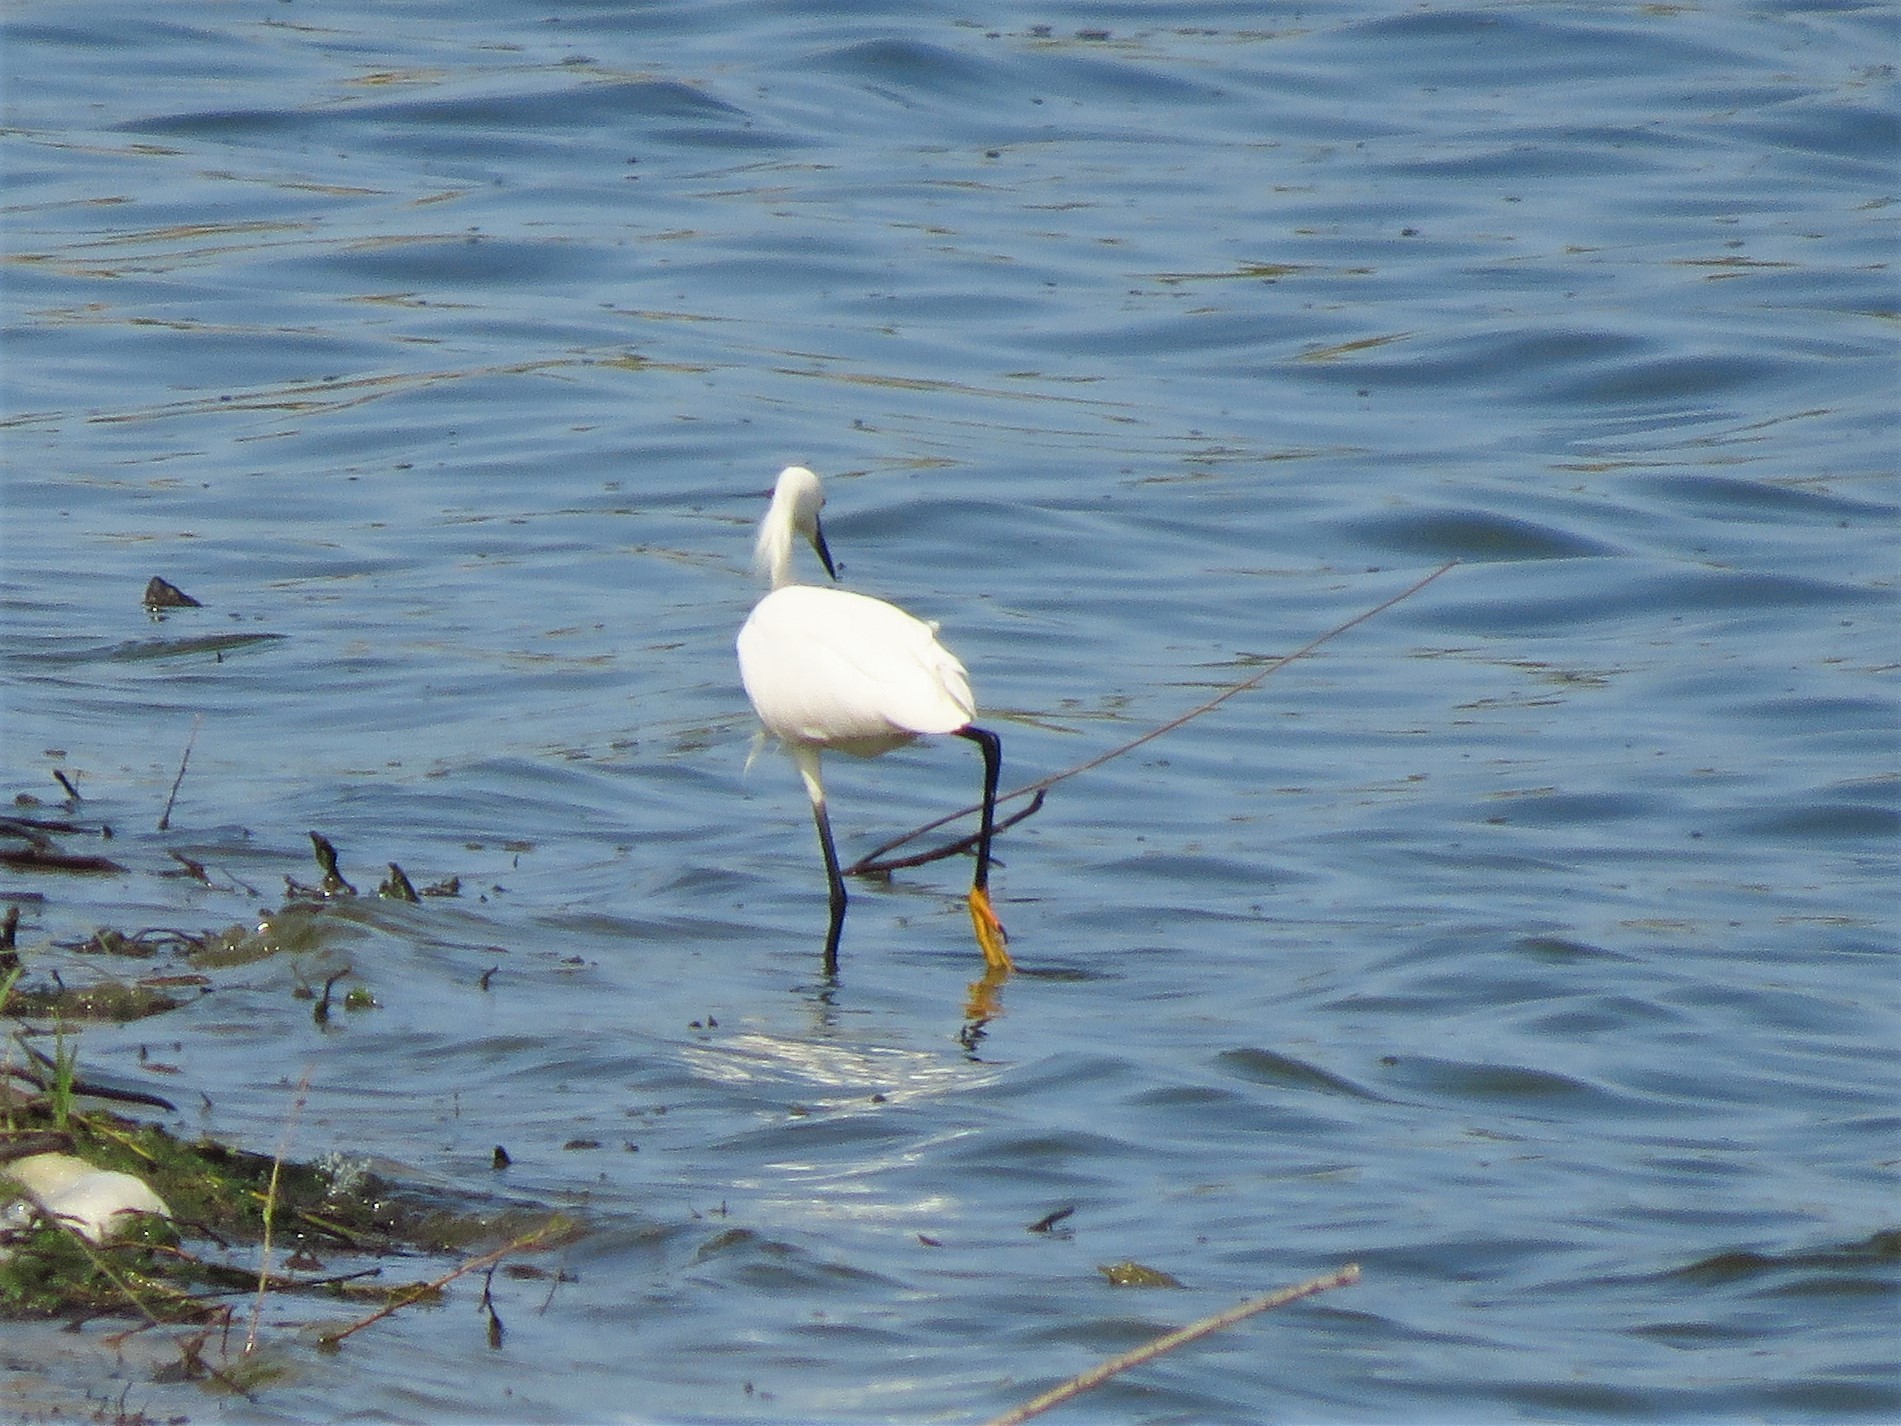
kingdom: Animalia
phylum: Chordata
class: Aves
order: Pelecaniformes
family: Ardeidae
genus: Egretta
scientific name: Egretta thula
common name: Snowy egret
